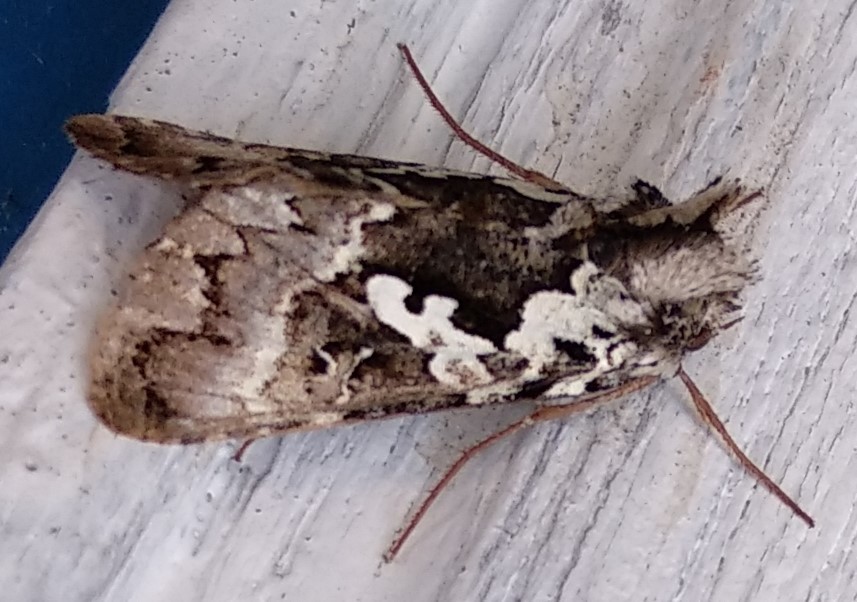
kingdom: Animalia
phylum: Arthropoda
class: Insecta
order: Lepidoptera
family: Noctuidae
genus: Syngrapha
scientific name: Syngrapha rectangula
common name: Angulated cutworm
